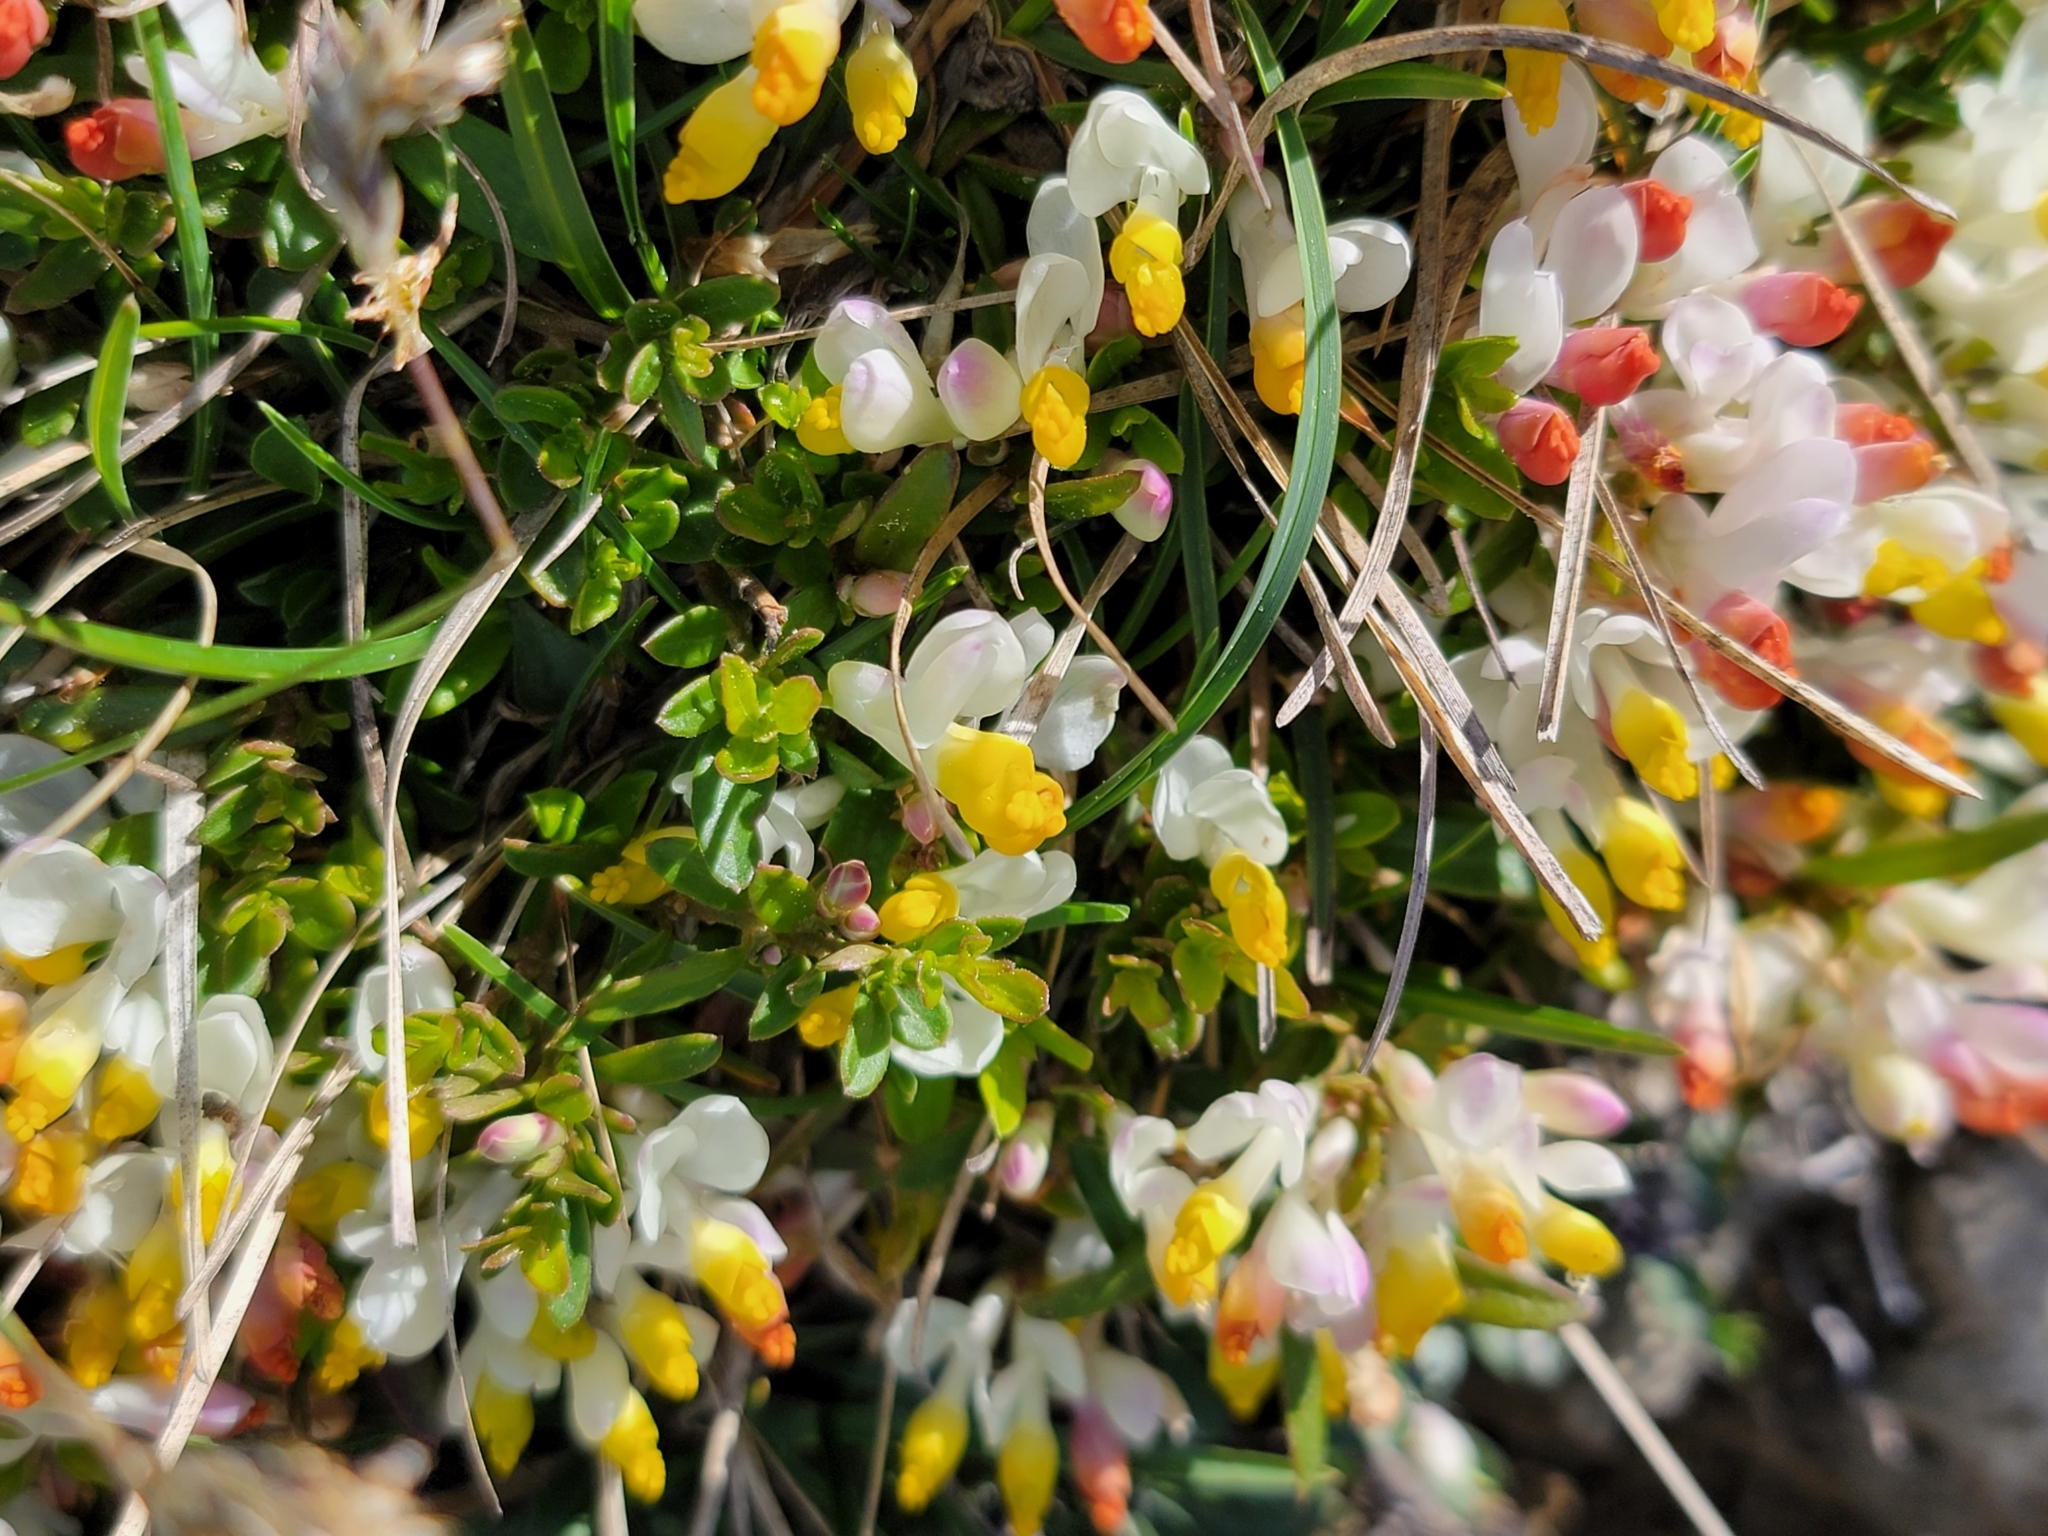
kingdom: Plantae
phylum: Tracheophyta
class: Magnoliopsida
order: Fabales
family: Polygalaceae
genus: Polygaloides
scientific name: Polygaloides chamaebuxus
